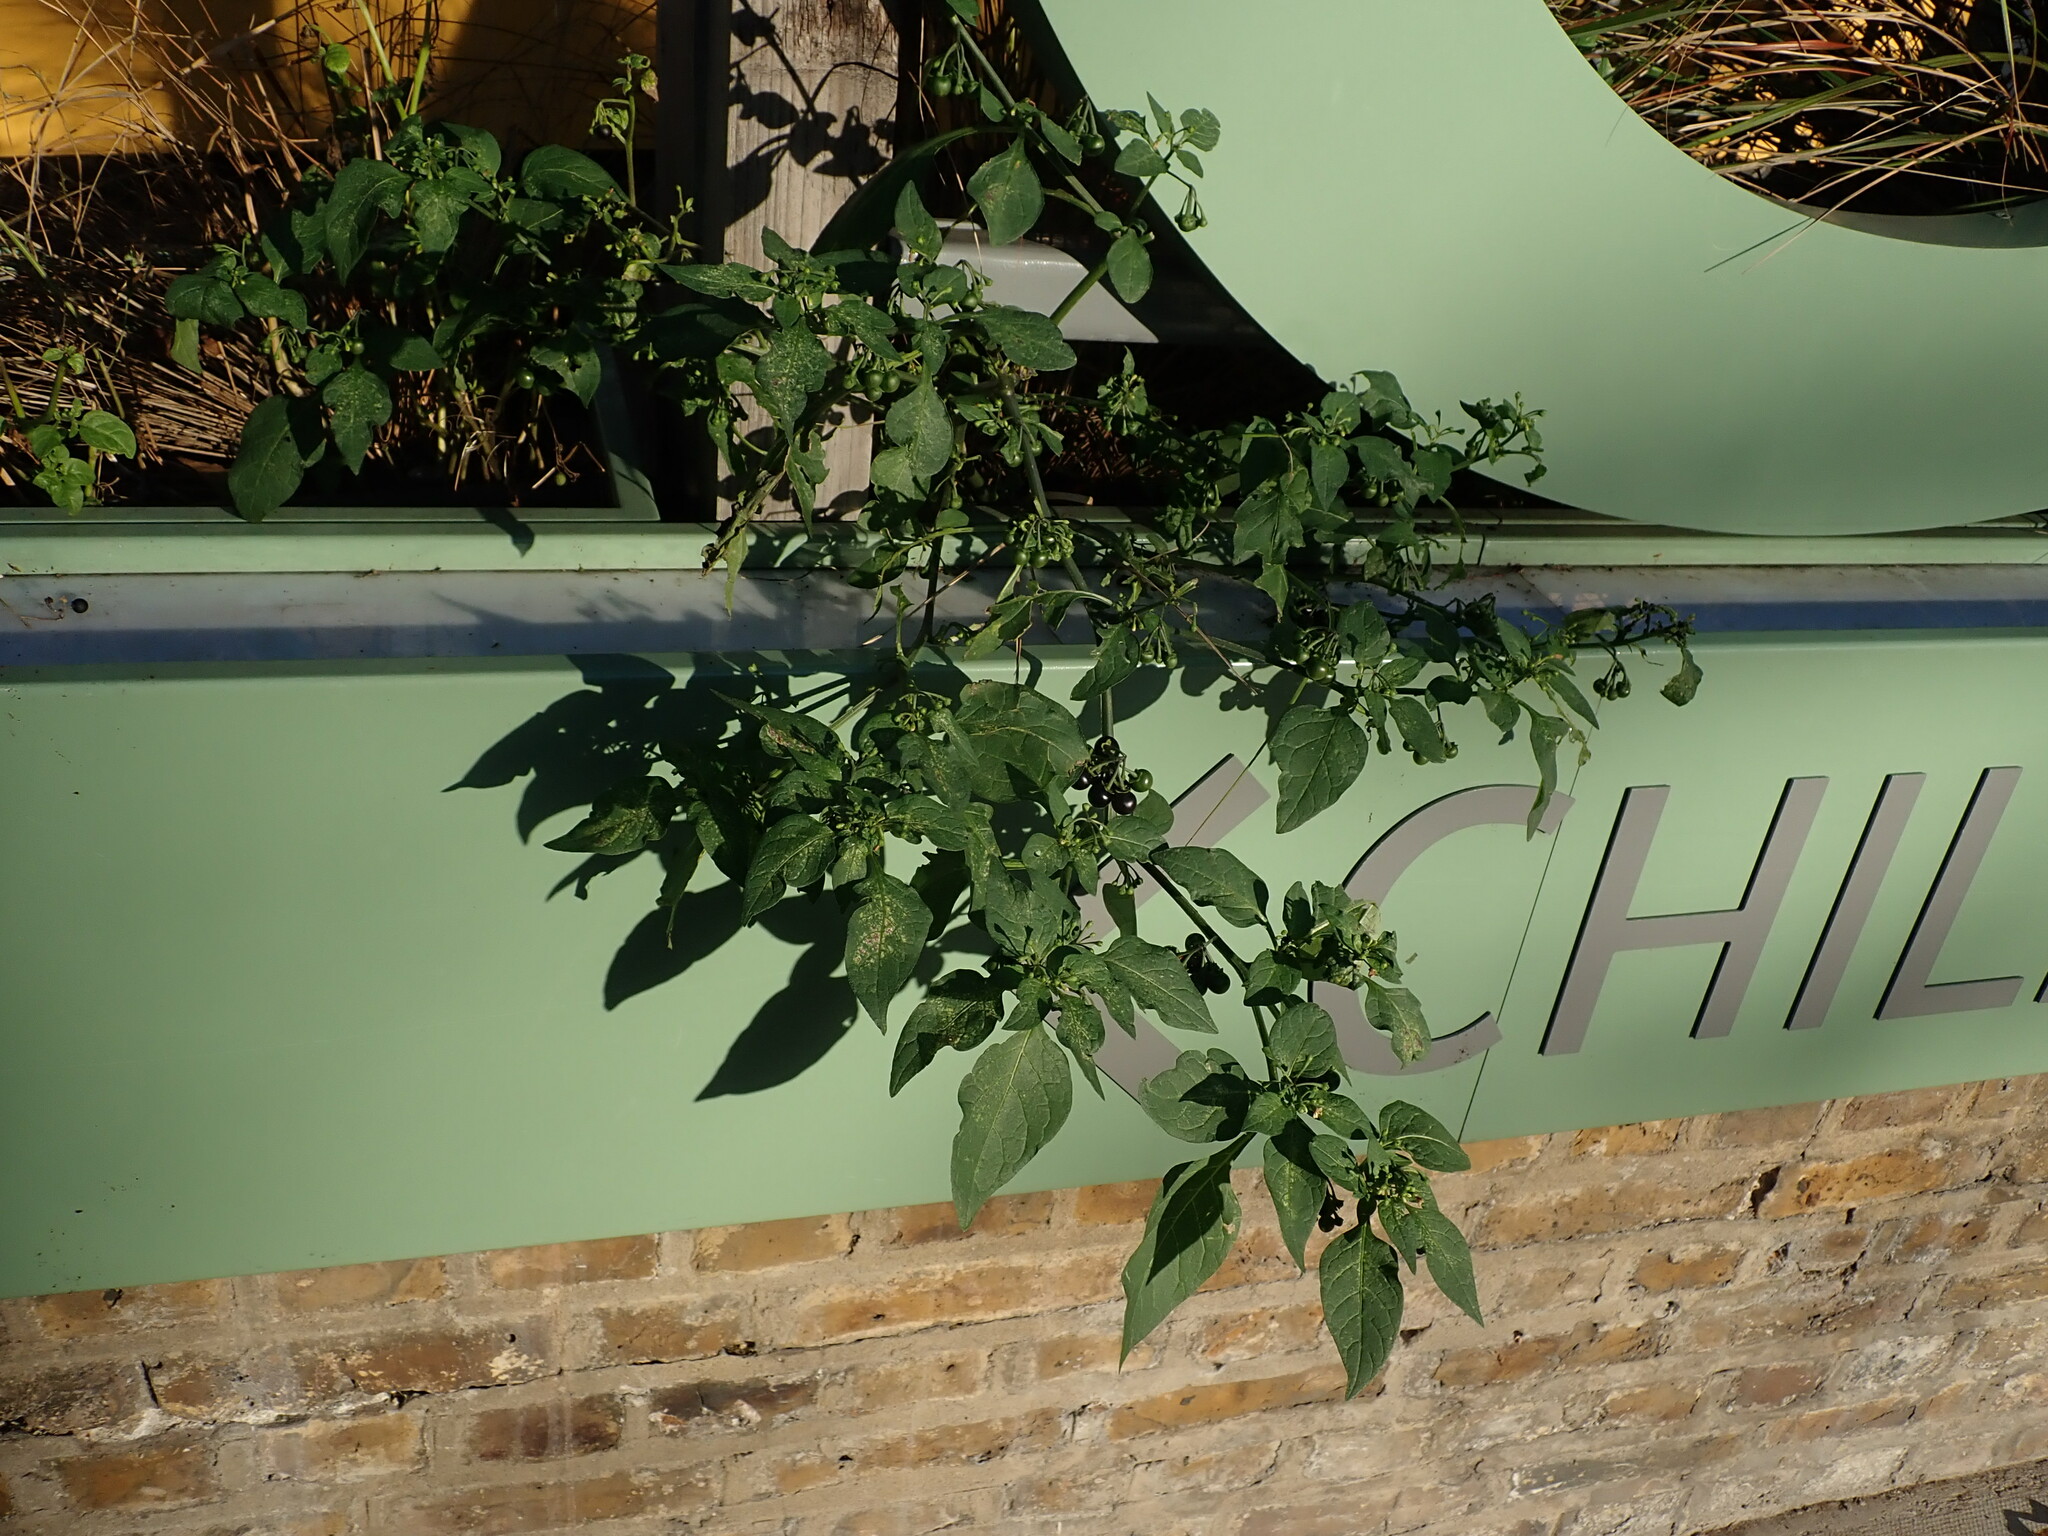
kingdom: Plantae
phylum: Tracheophyta
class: Magnoliopsida
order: Solanales
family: Solanaceae
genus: Solanum
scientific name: Solanum nigrum
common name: Black nightshade
